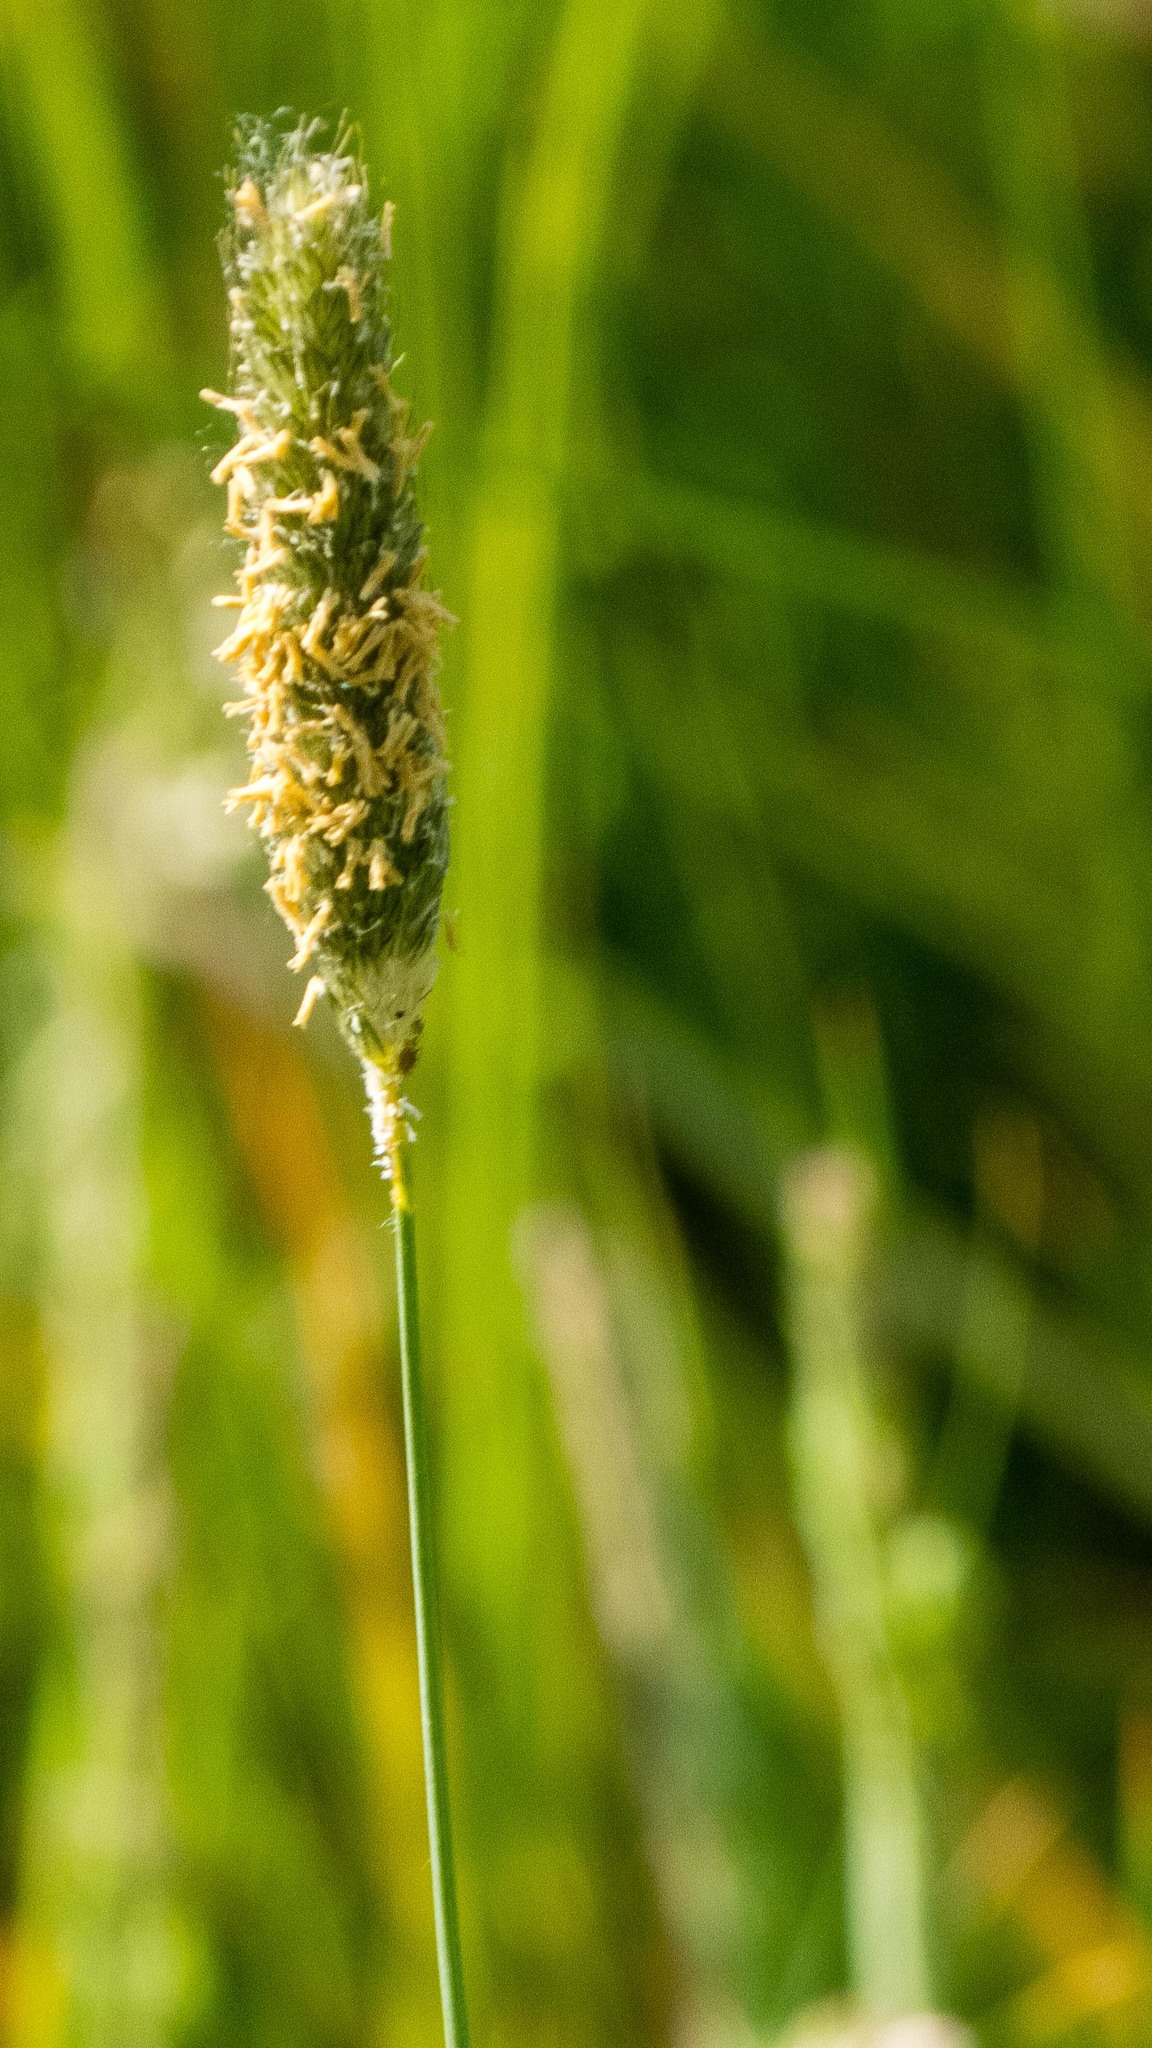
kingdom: Plantae
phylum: Tracheophyta
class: Liliopsida
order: Poales
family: Poaceae
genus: Alopecurus
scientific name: Alopecurus pratensis
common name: Meadow foxtail
